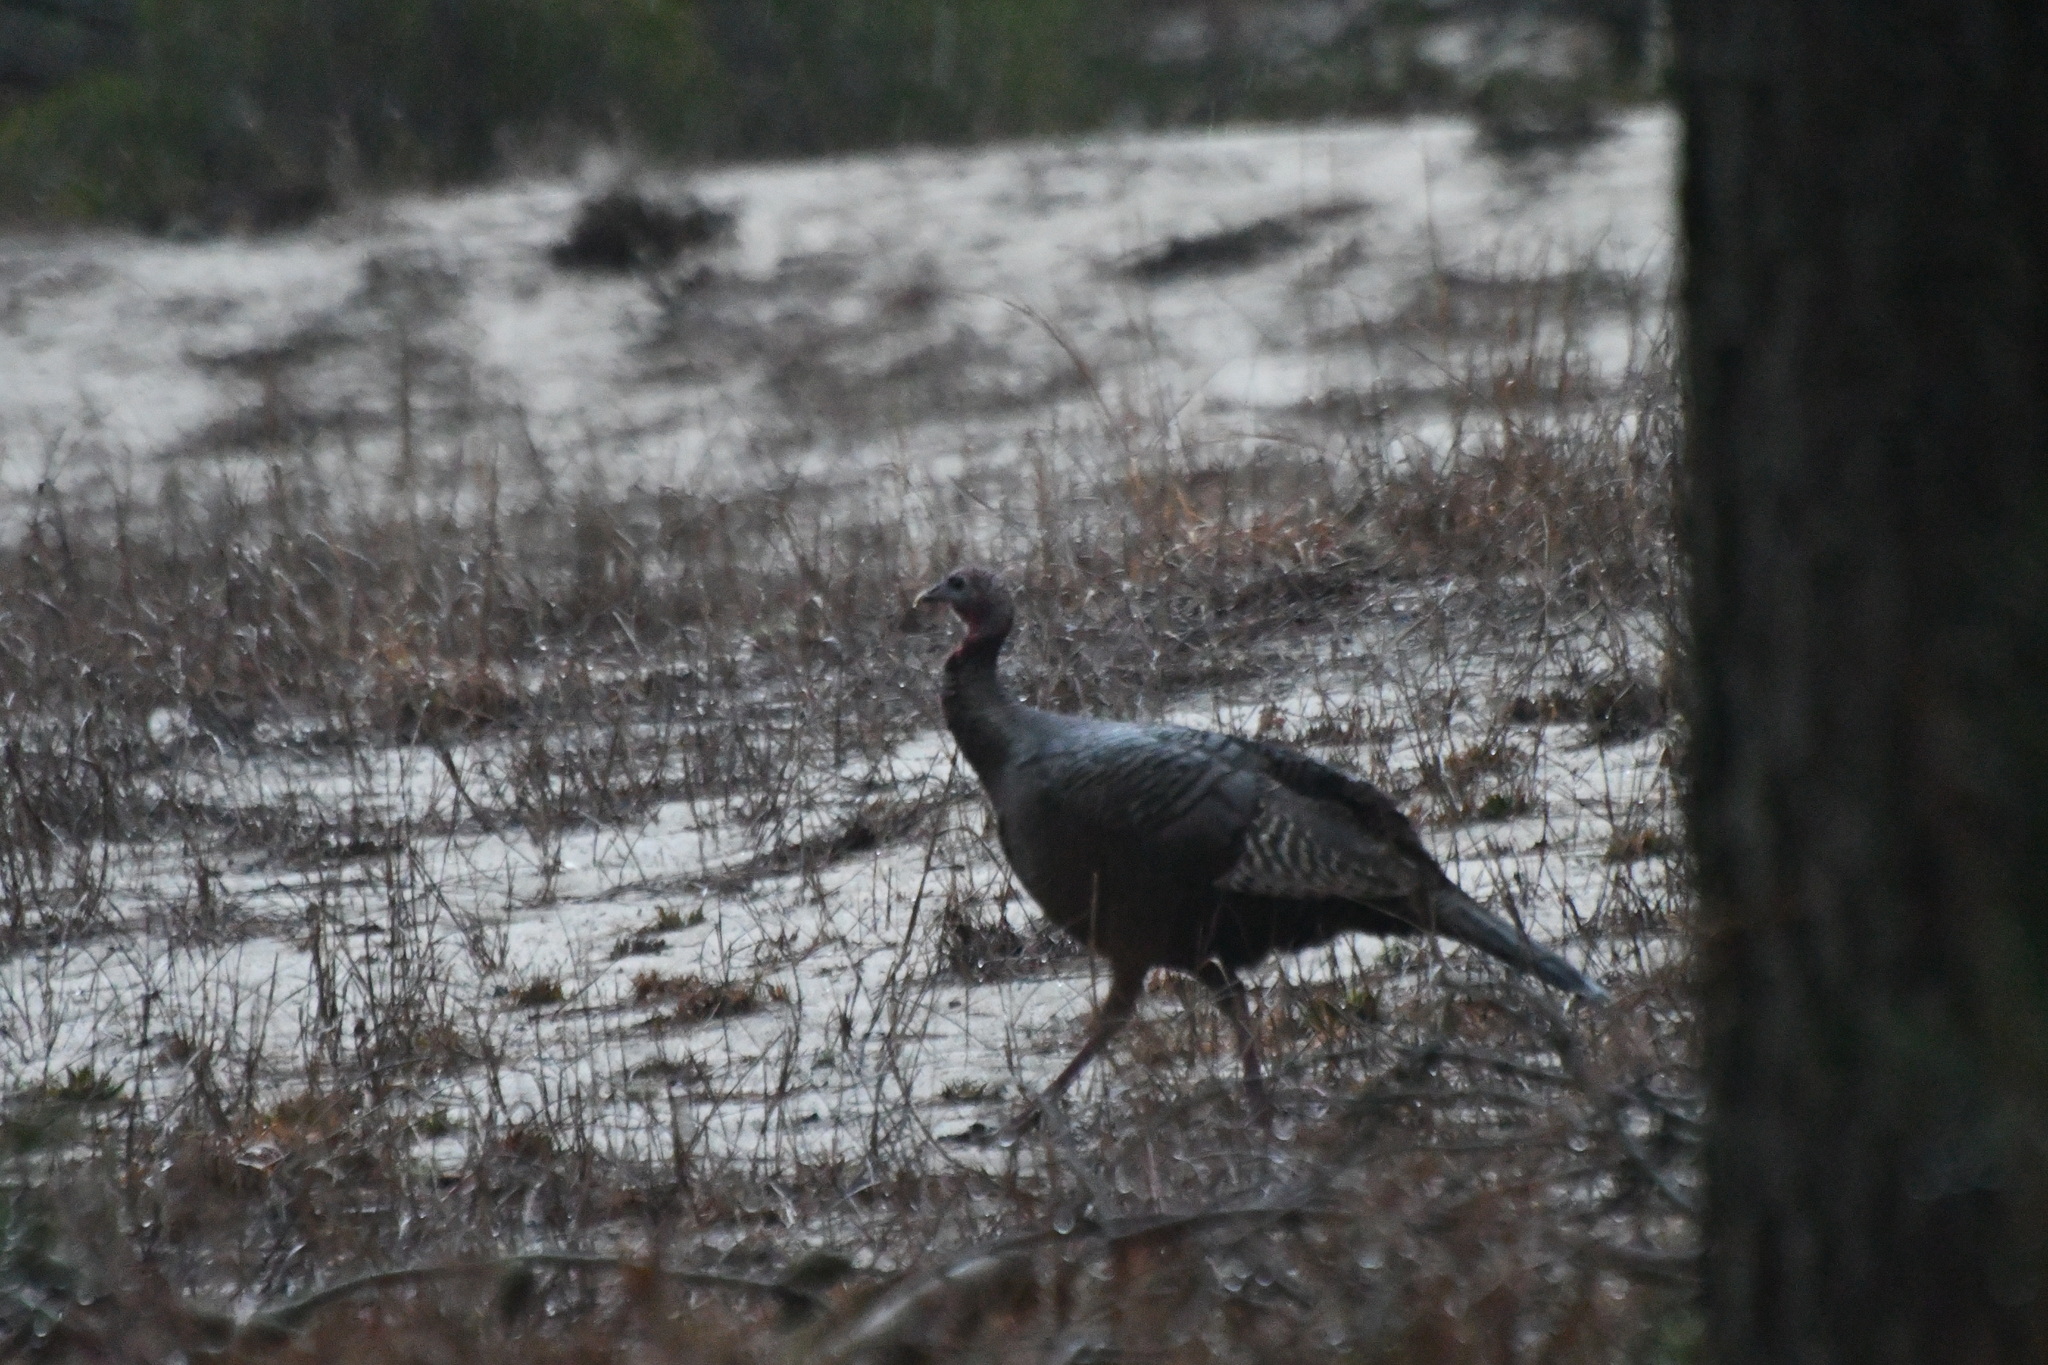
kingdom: Animalia
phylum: Chordata
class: Aves
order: Galliformes
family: Phasianidae
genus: Meleagris
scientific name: Meleagris gallopavo
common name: Wild turkey
